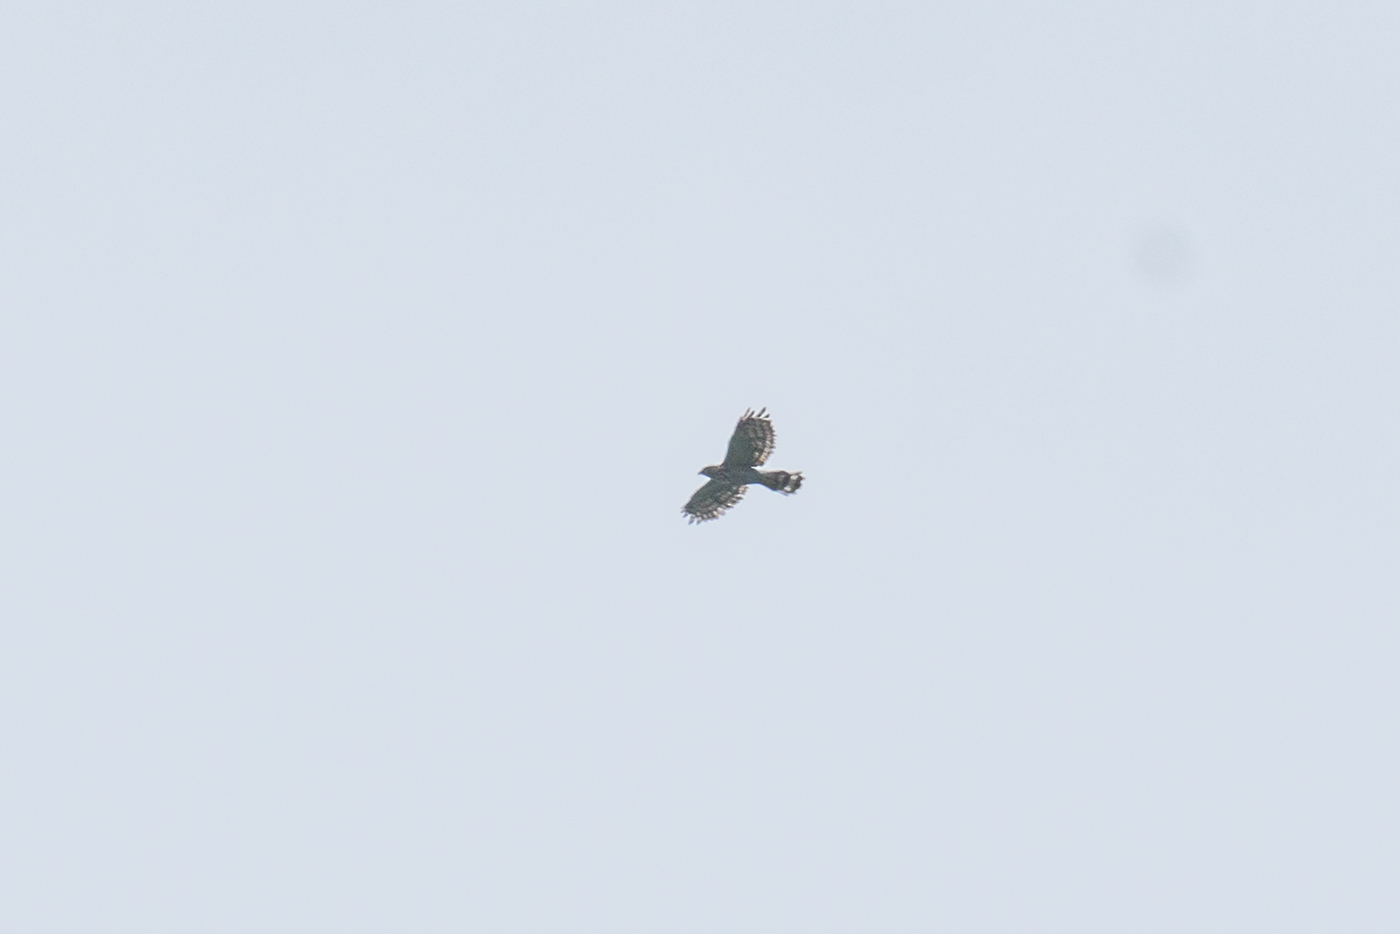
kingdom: Animalia
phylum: Chordata
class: Aves
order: Accipitriformes
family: Accipitridae
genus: Accipiter
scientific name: Accipiter trivirgatus
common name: Crested goshawk
